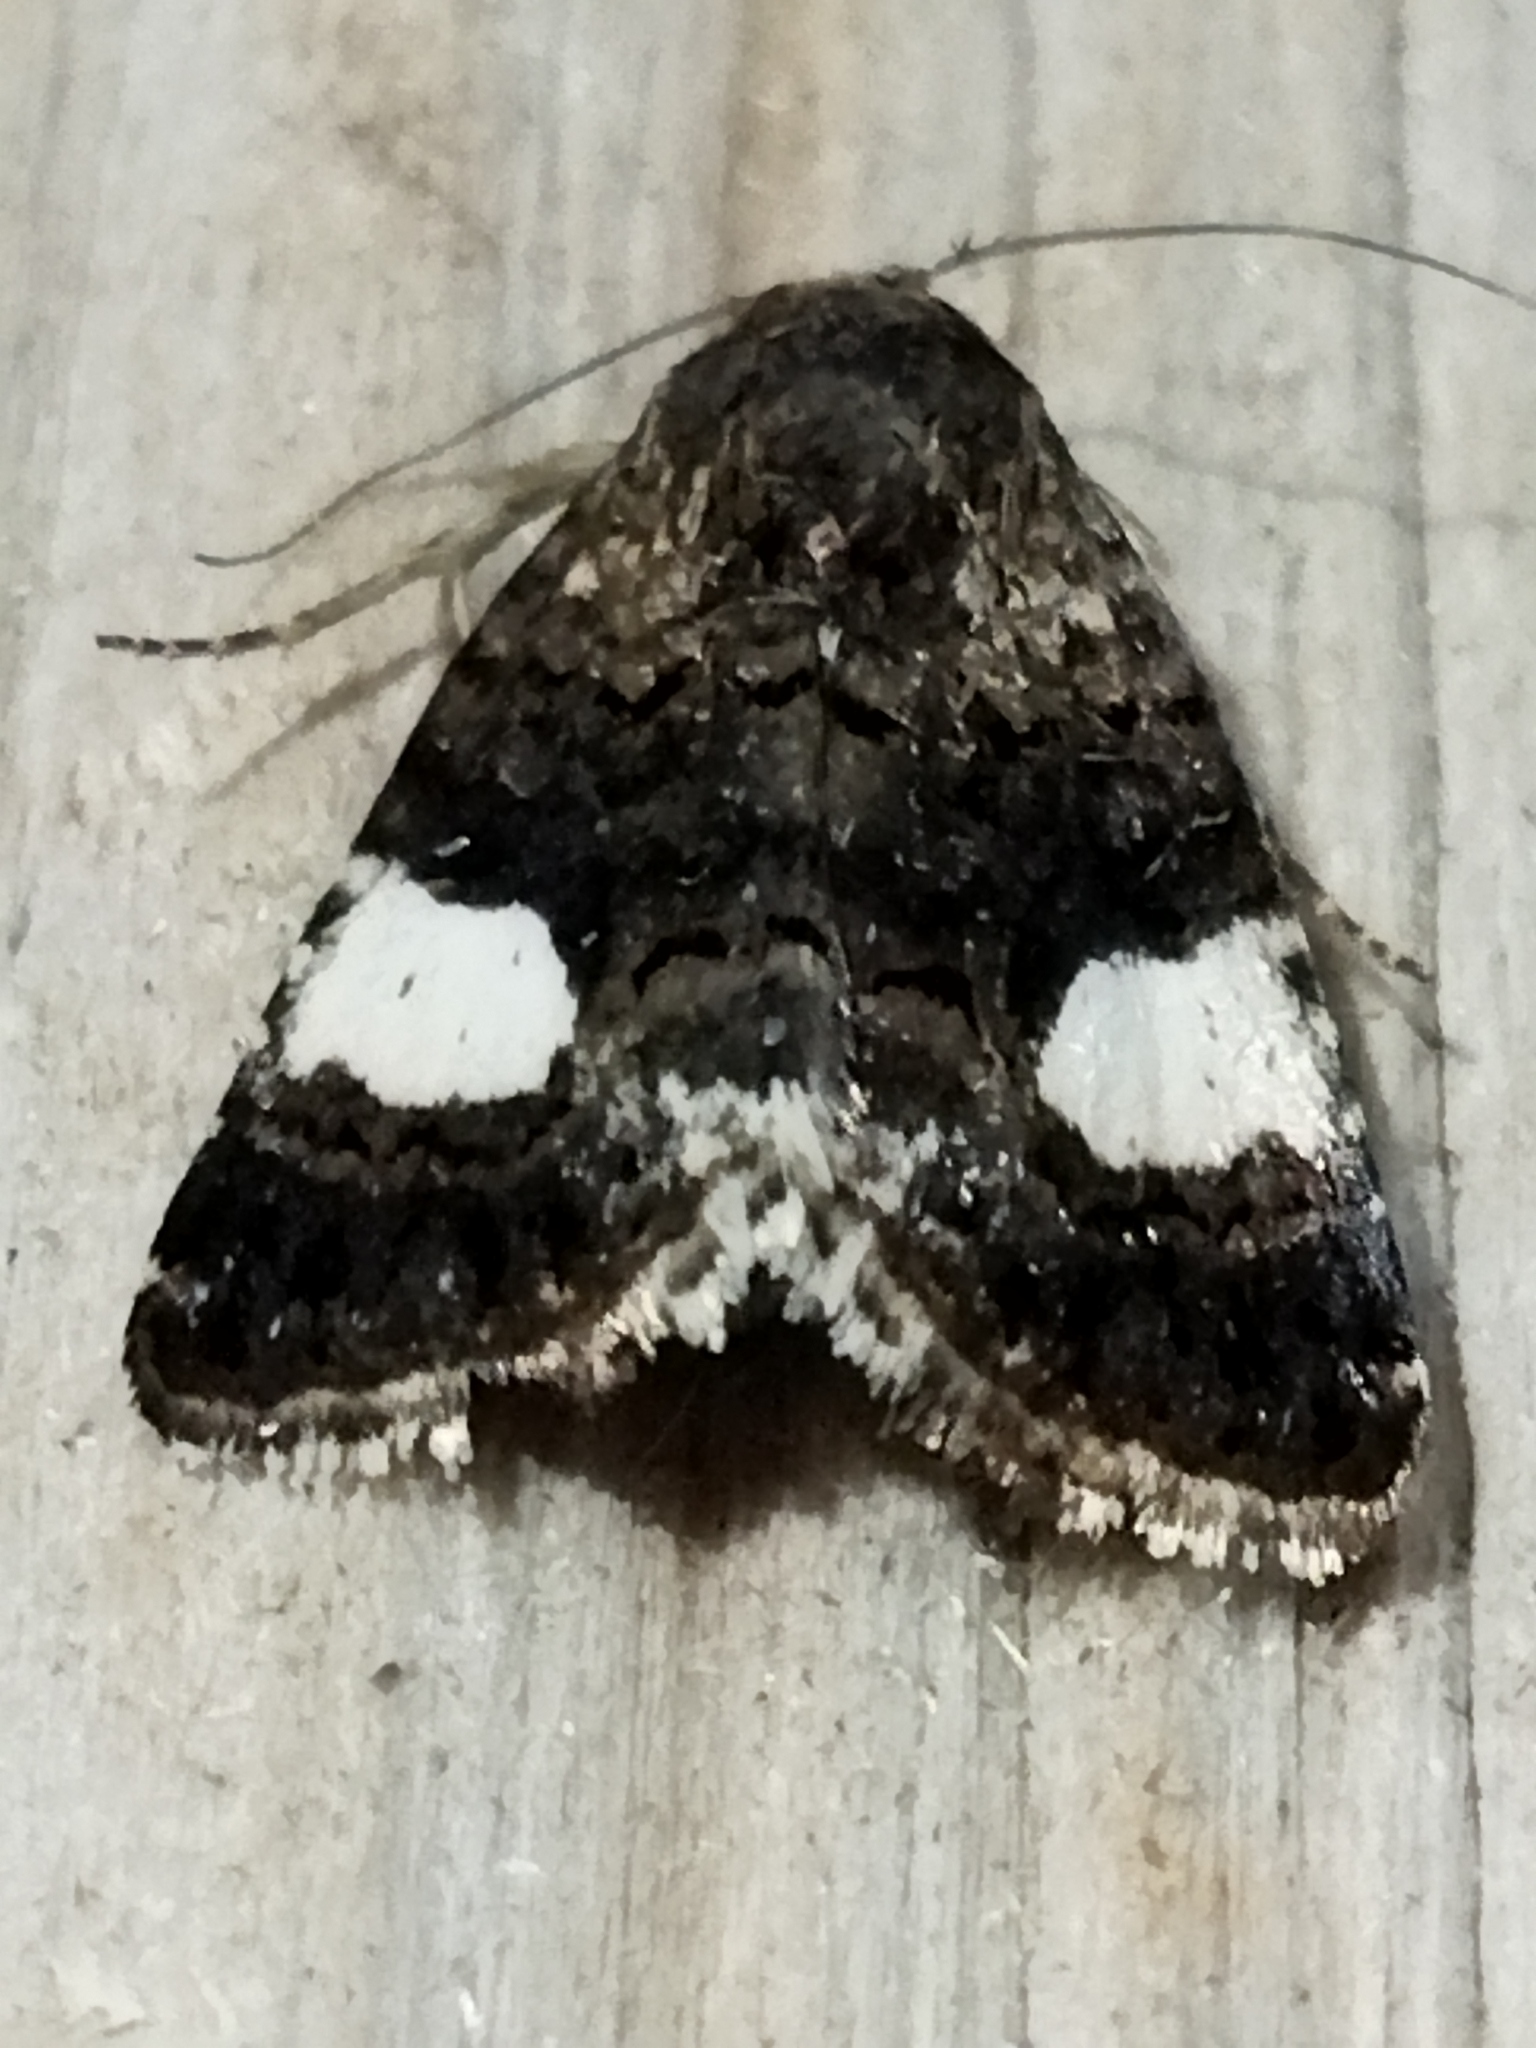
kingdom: Animalia
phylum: Arthropoda
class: Insecta
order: Lepidoptera
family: Erebidae
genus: Tyta
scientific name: Tyta luctuosa
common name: Four-spotted
